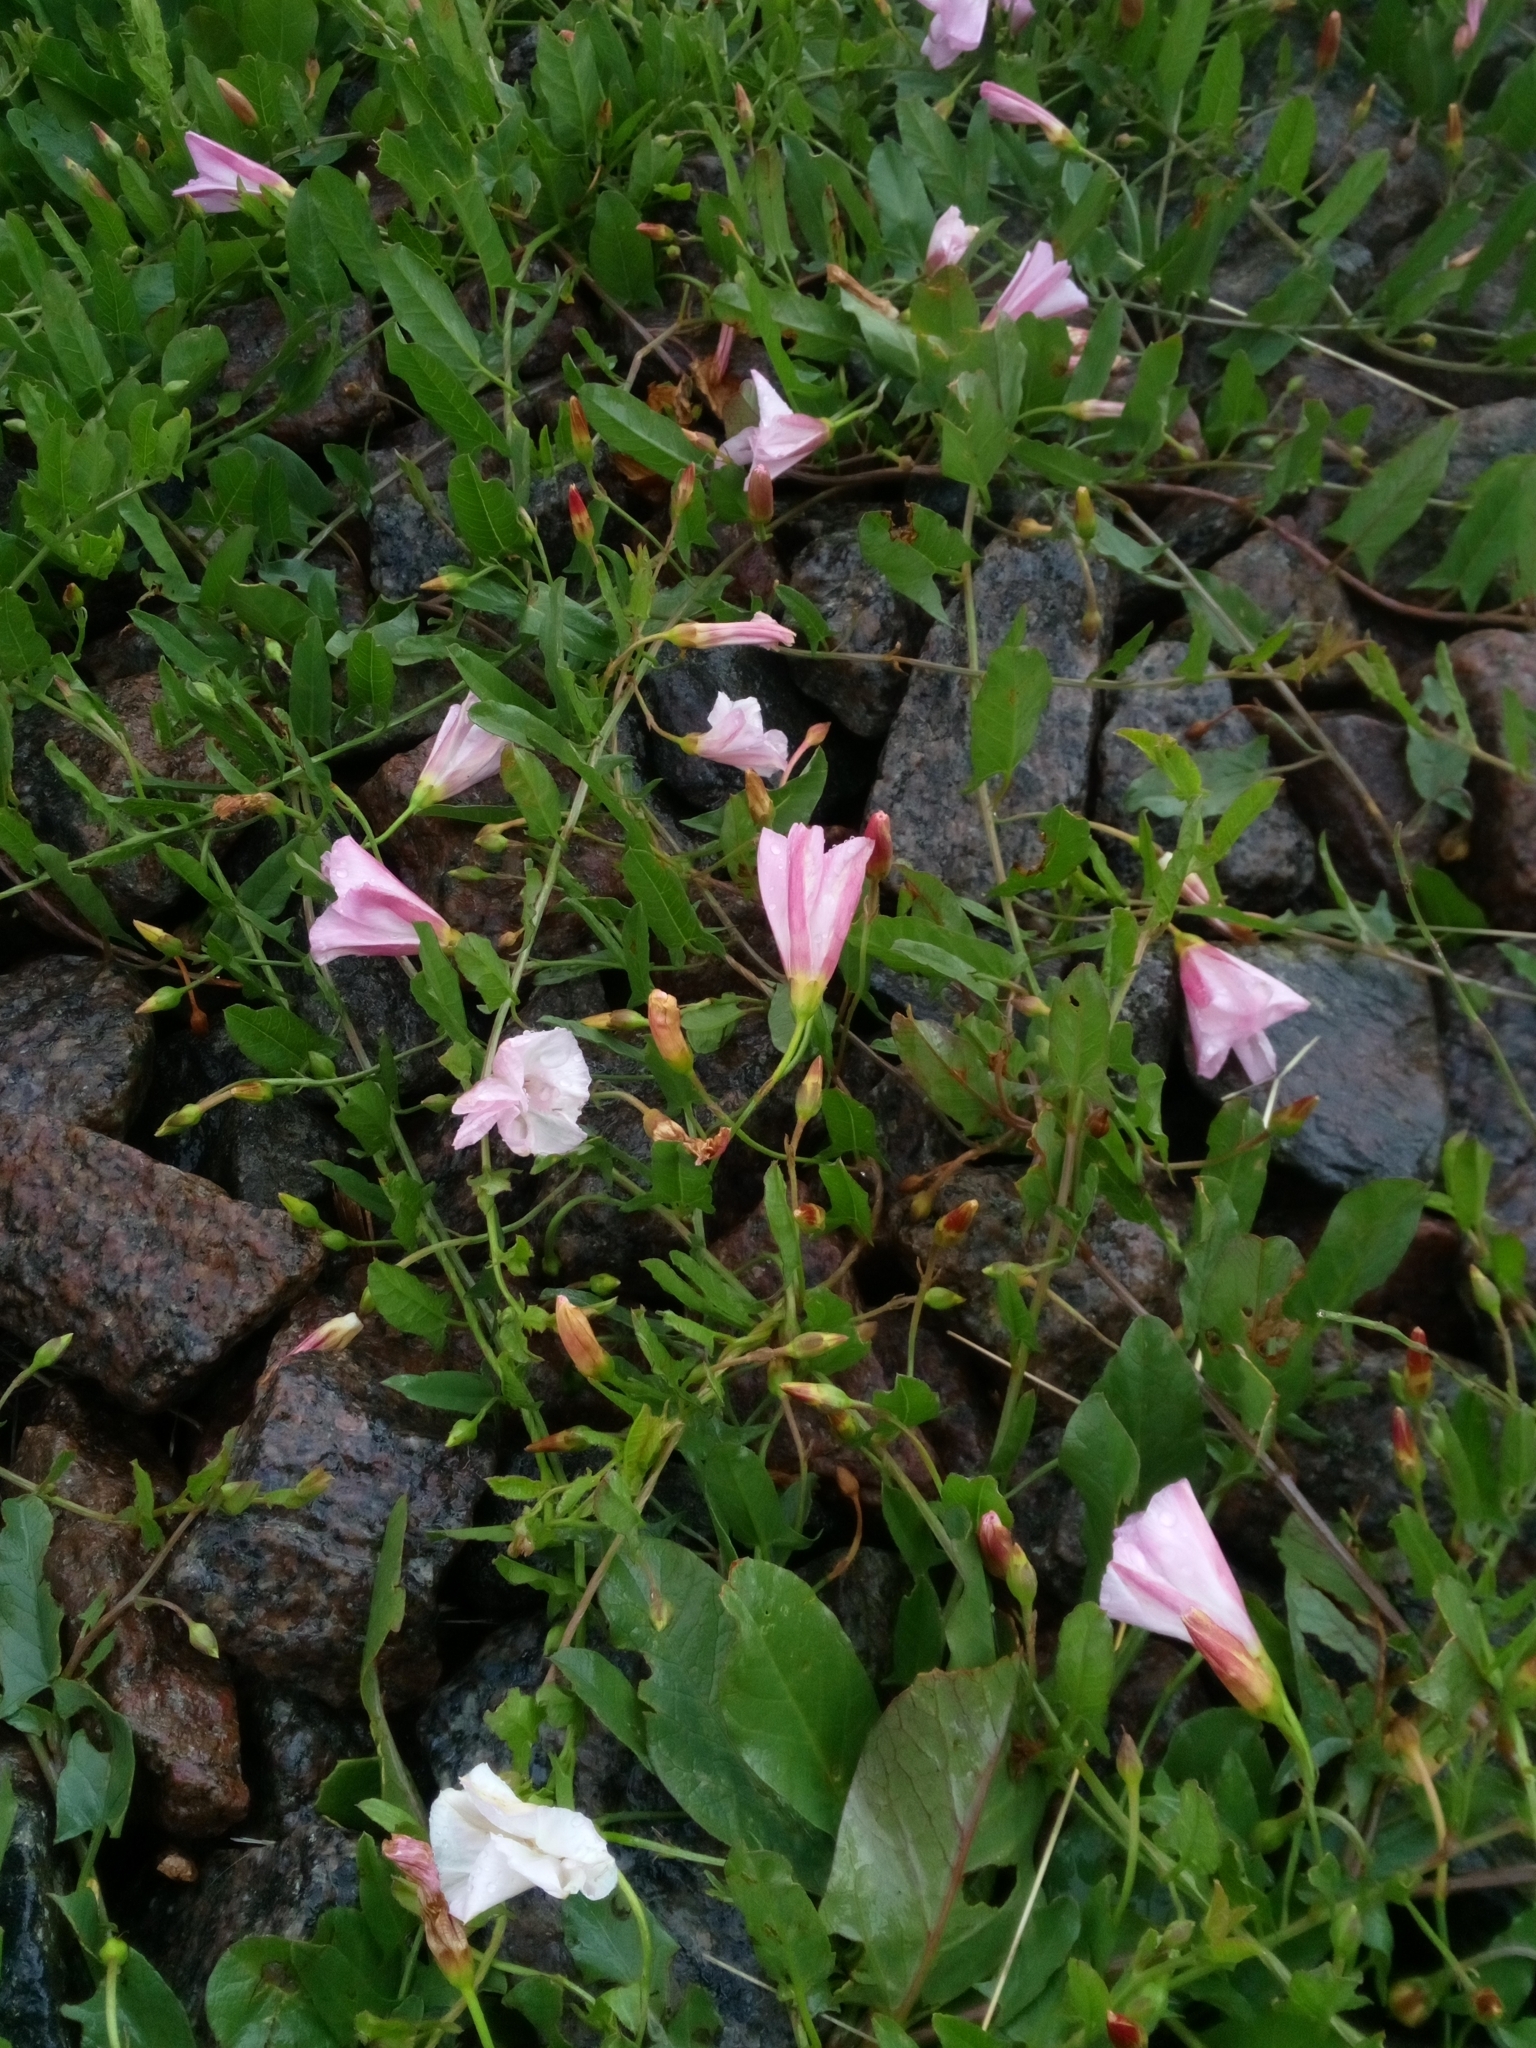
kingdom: Plantae
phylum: Tracheophyta
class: Magnoliopsida
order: Solanales
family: Convolvulaceae
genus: Convolvulus
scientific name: Convolvulus arvensis
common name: Field bindweed
